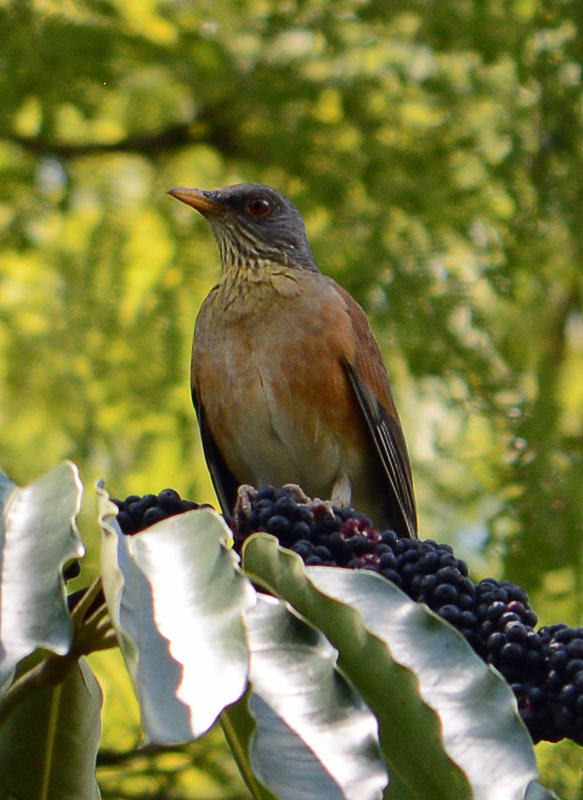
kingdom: Animalia
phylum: Chordata
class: Aves
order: Passeriformes
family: Turdidae
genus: Turdus
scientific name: Turdus rufopalliatus
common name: Rufous-backed robin
